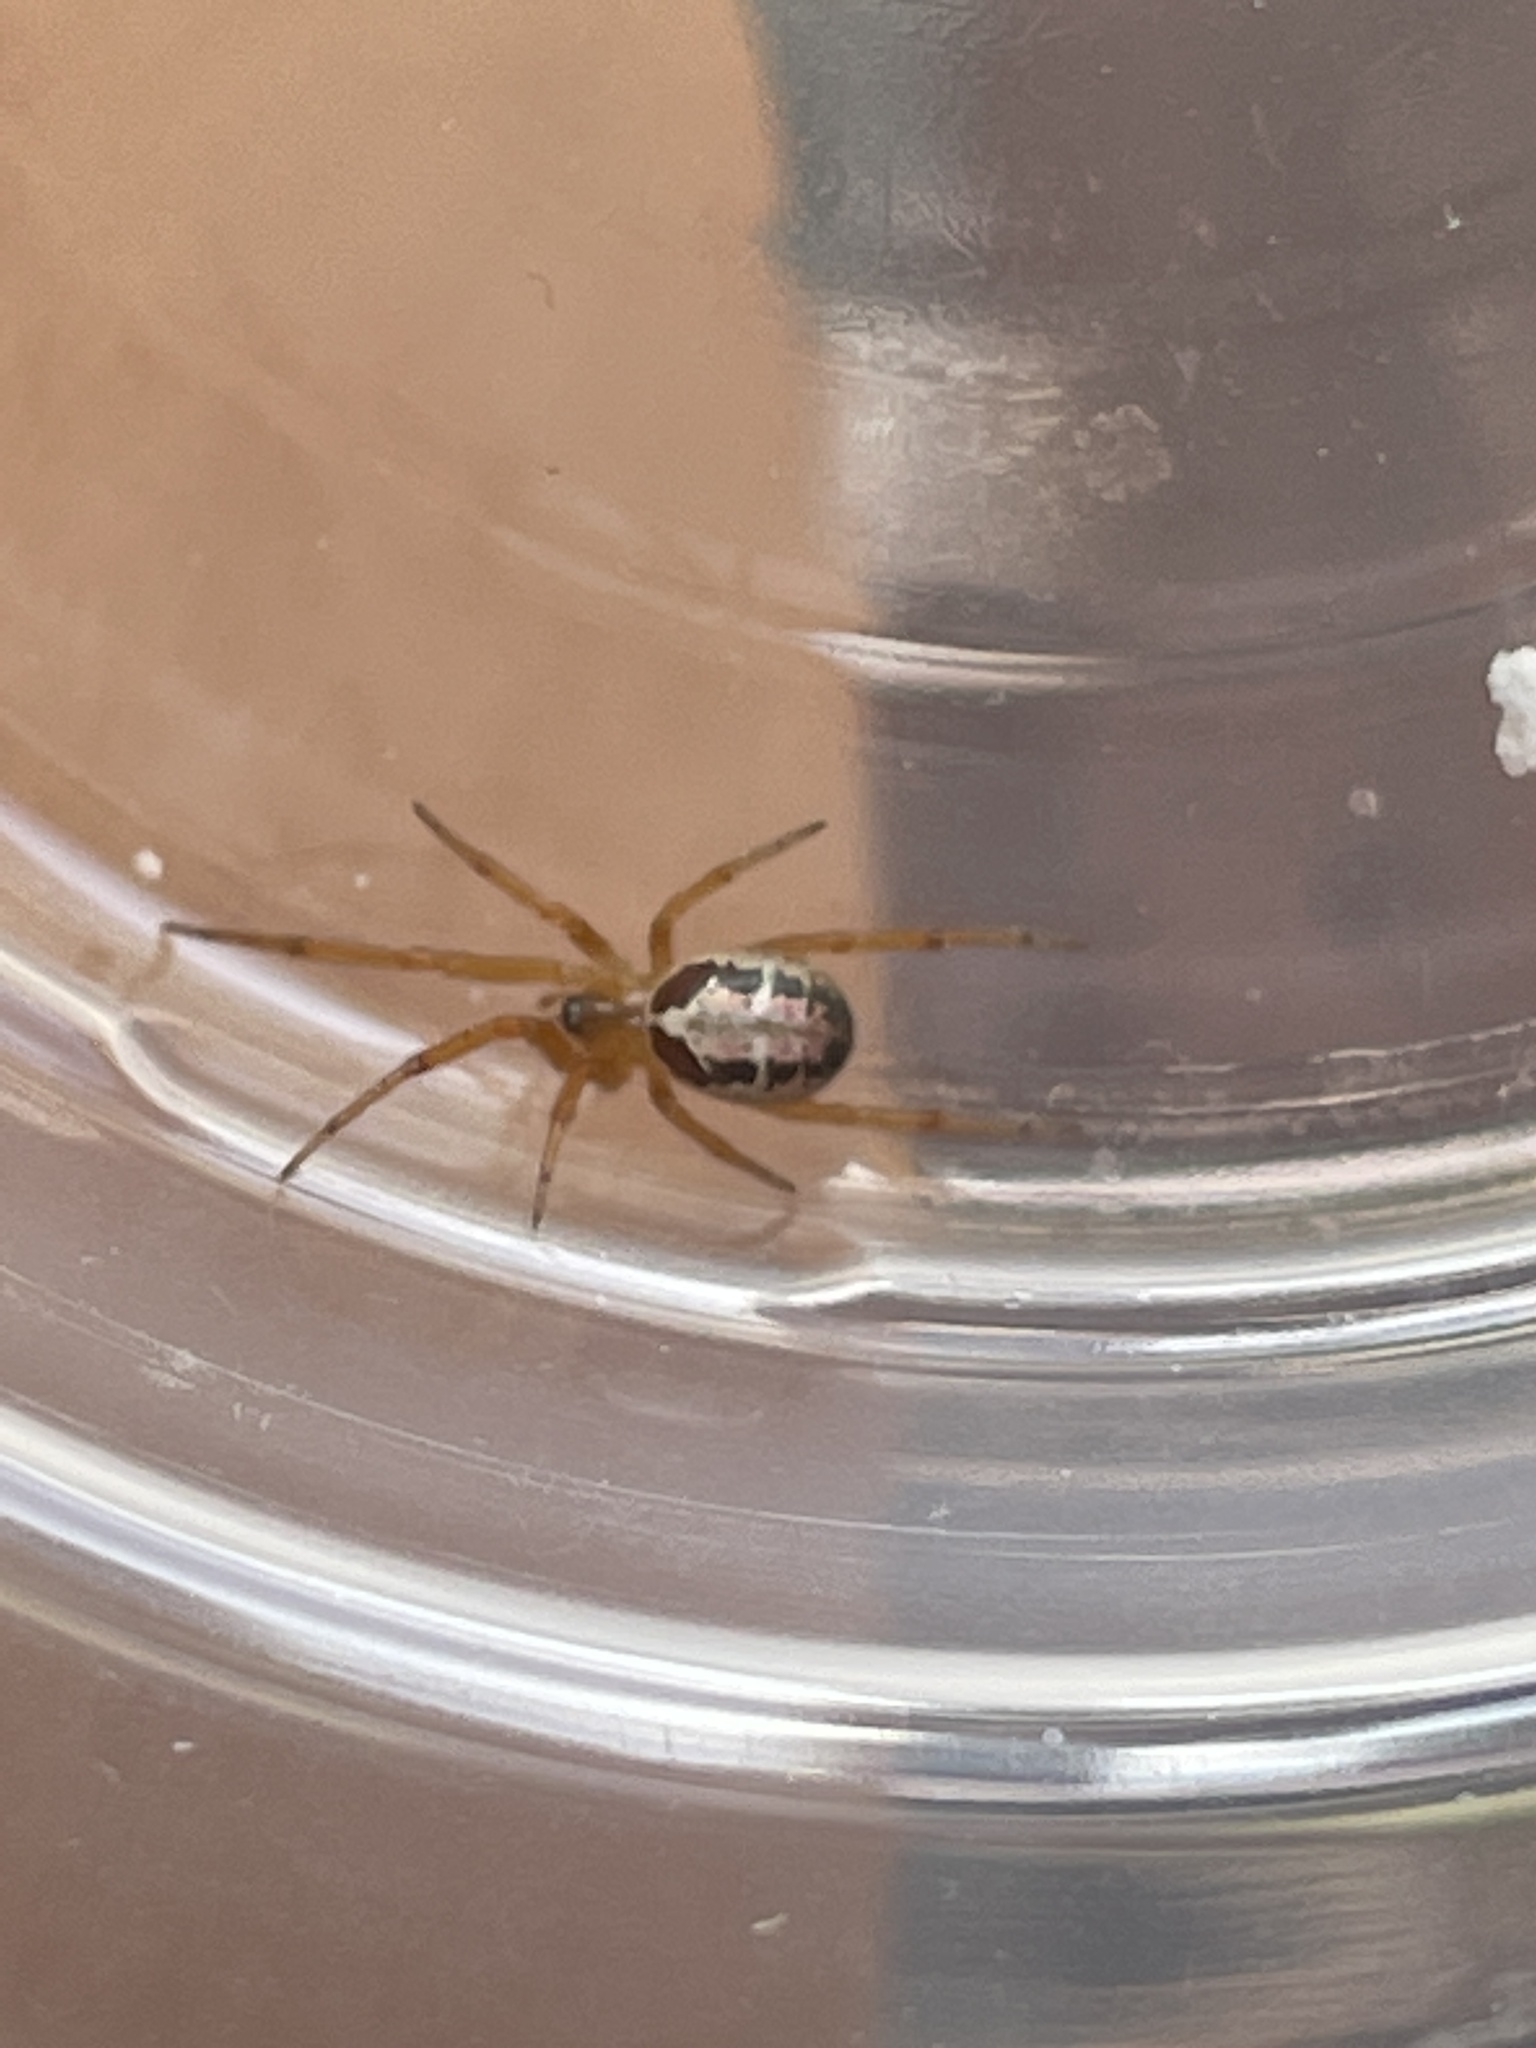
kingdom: Animalia
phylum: Arthropoda
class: Arachnida
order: Araneae
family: Theridiidae
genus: Steatoda
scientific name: Steatoda nobilis
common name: Cobweb weaver
